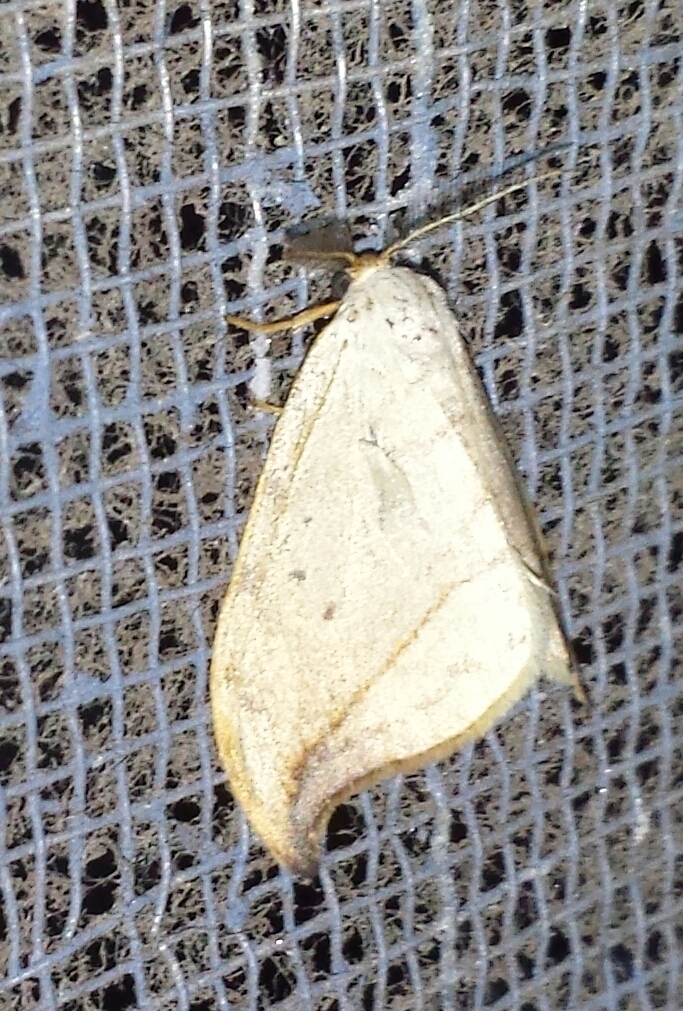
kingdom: Animalia
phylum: Arthropoda
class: Insecta
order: Lepidoptera
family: Drepanidae
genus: Drepana
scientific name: Drepana arcuata
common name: Arched hooktip moth
